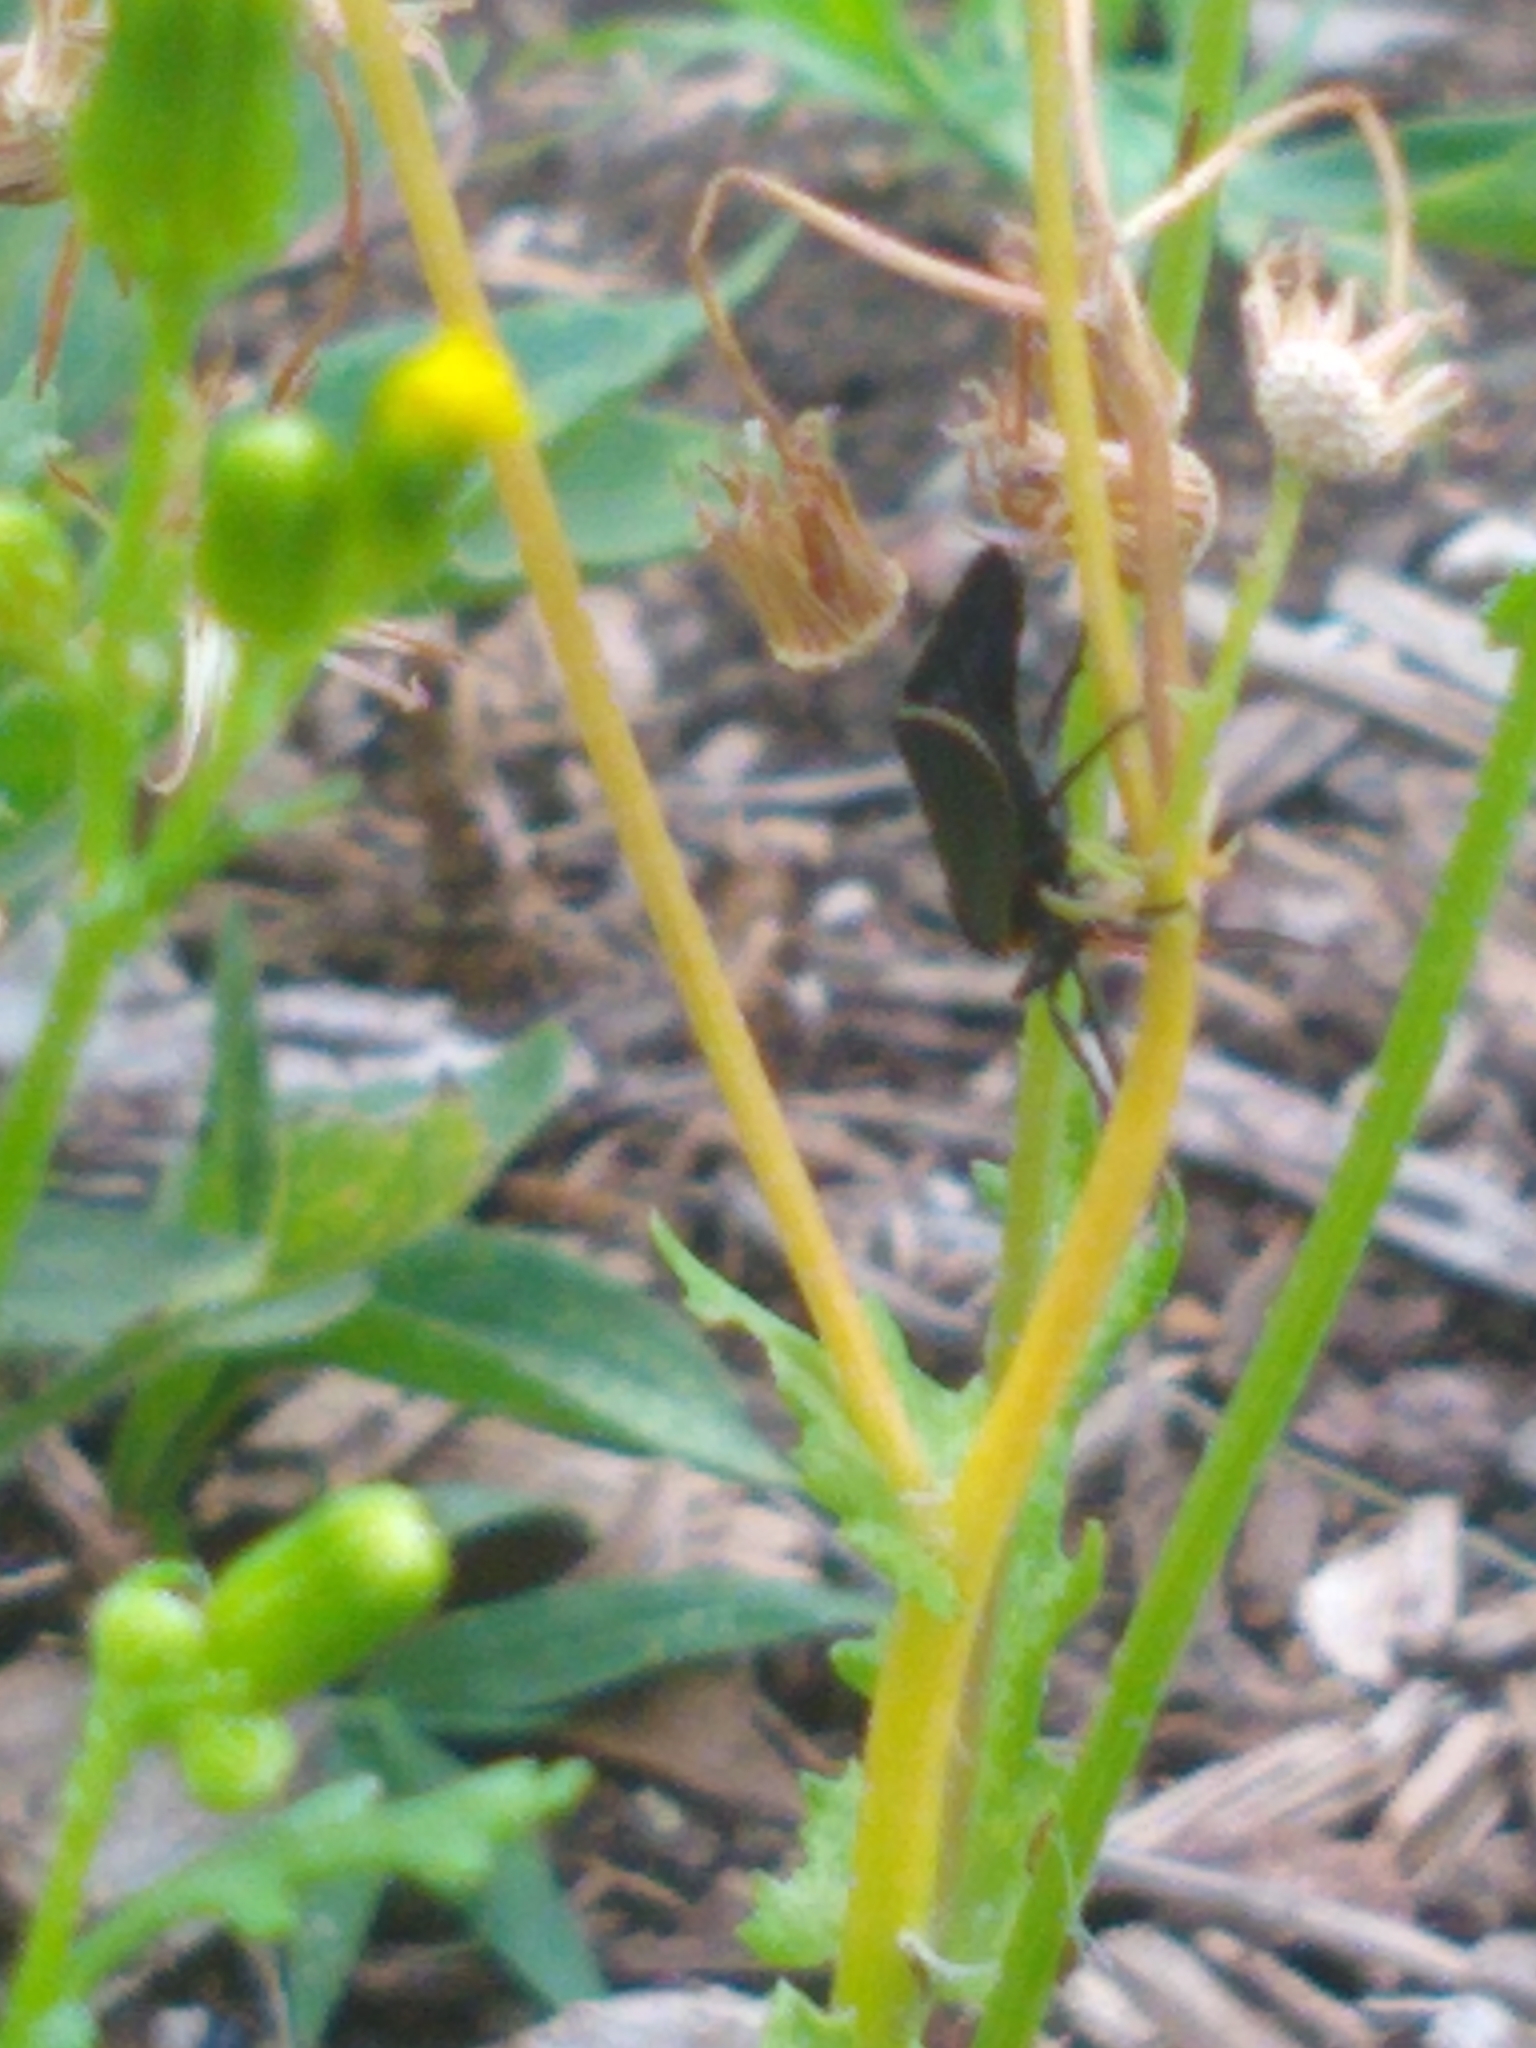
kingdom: Animalia
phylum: Arthropoda
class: Insecta
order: Lepidoptera
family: Erebidae
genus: Cisseps
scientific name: Cisseps fulvicollis
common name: Yellow-collared scape moth
